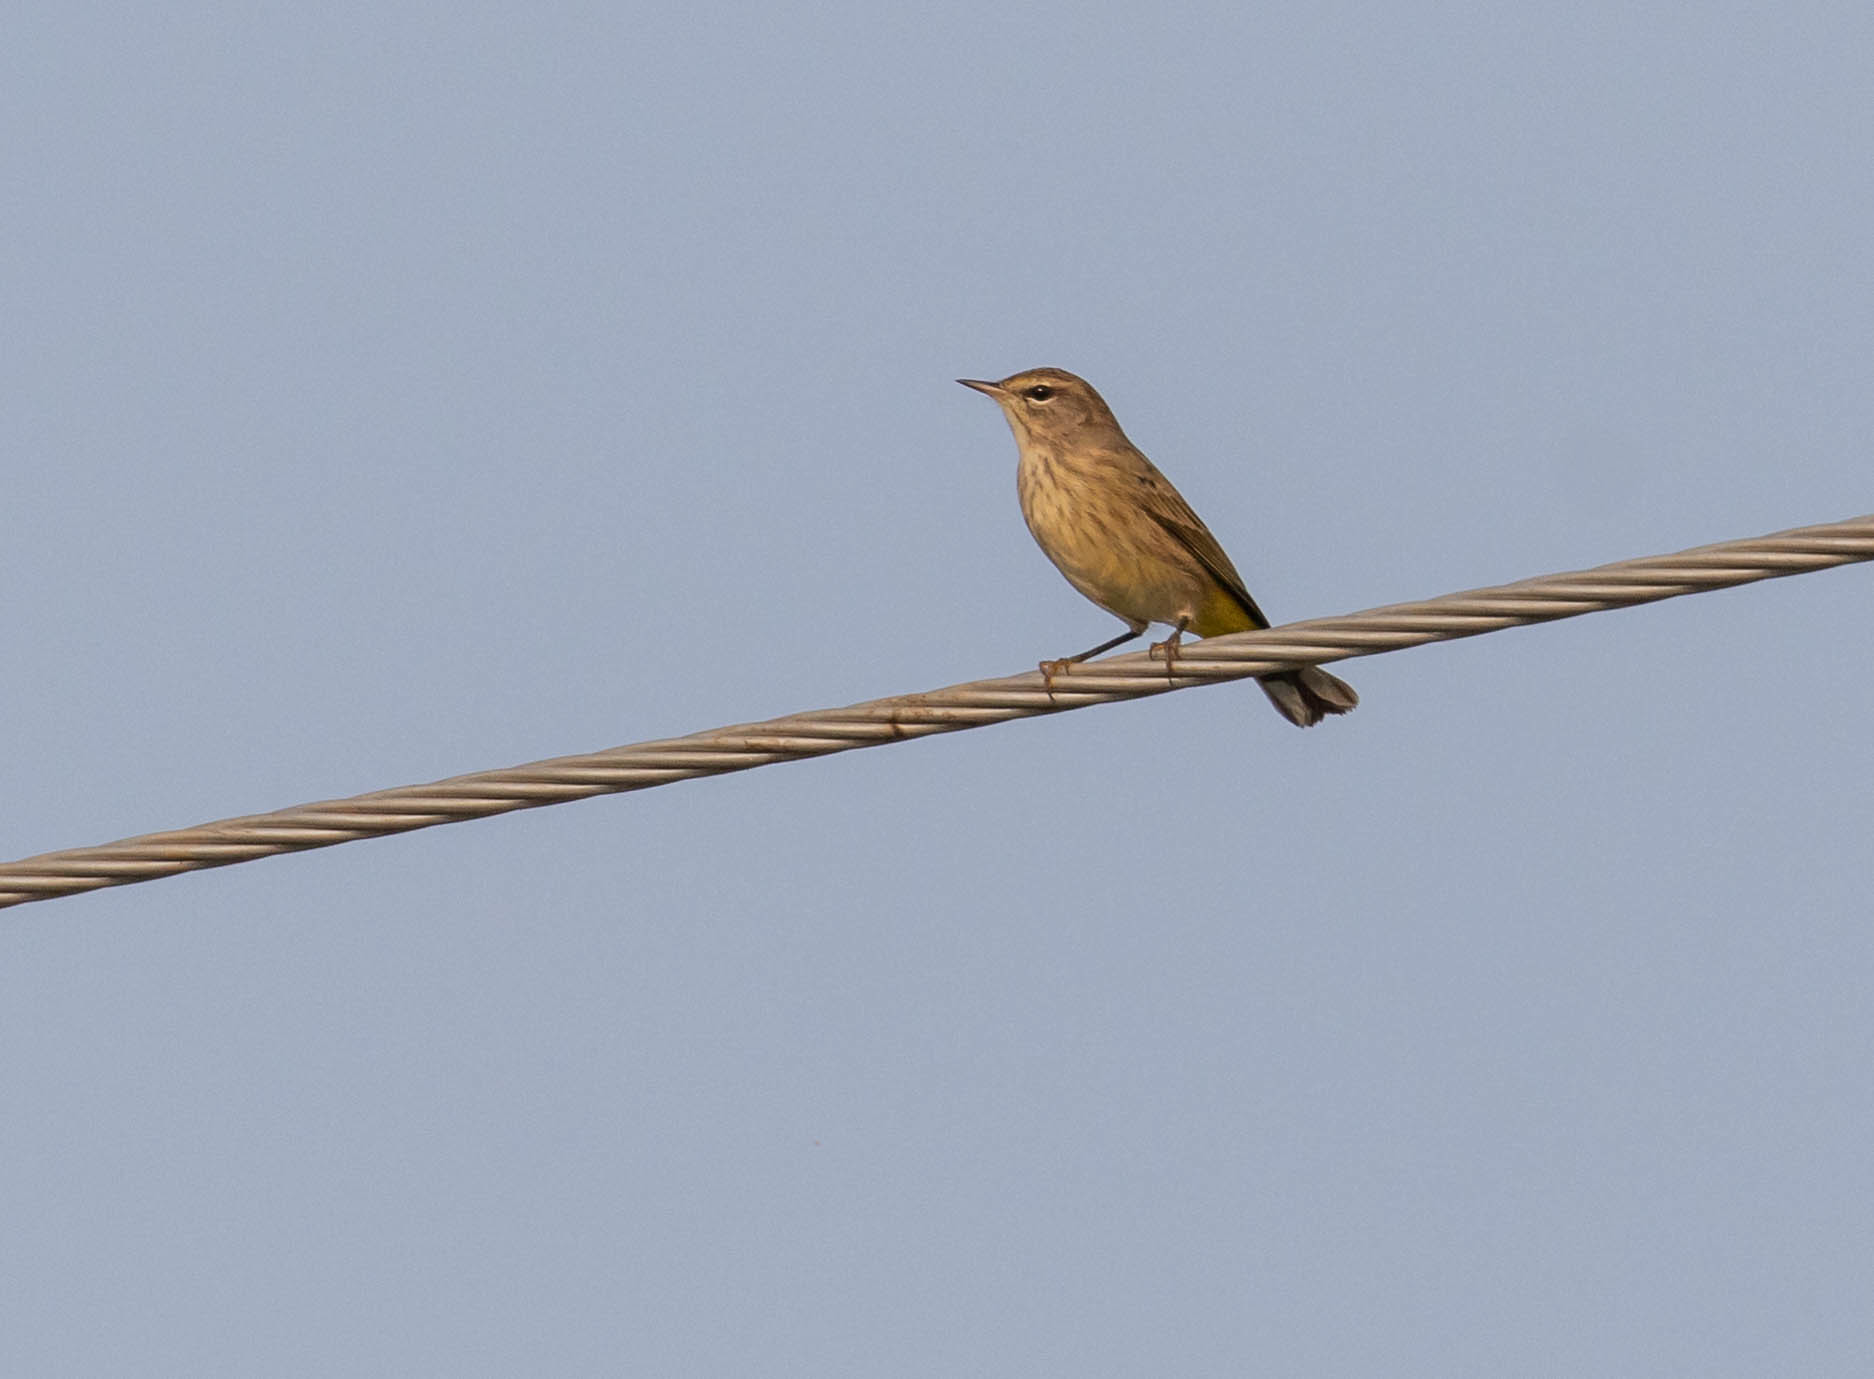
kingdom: Animalia
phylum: Chordata
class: Aves
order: Passeriformes
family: Parulidae
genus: Setophaga
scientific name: Setophaga palmarum
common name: Palm warbler
